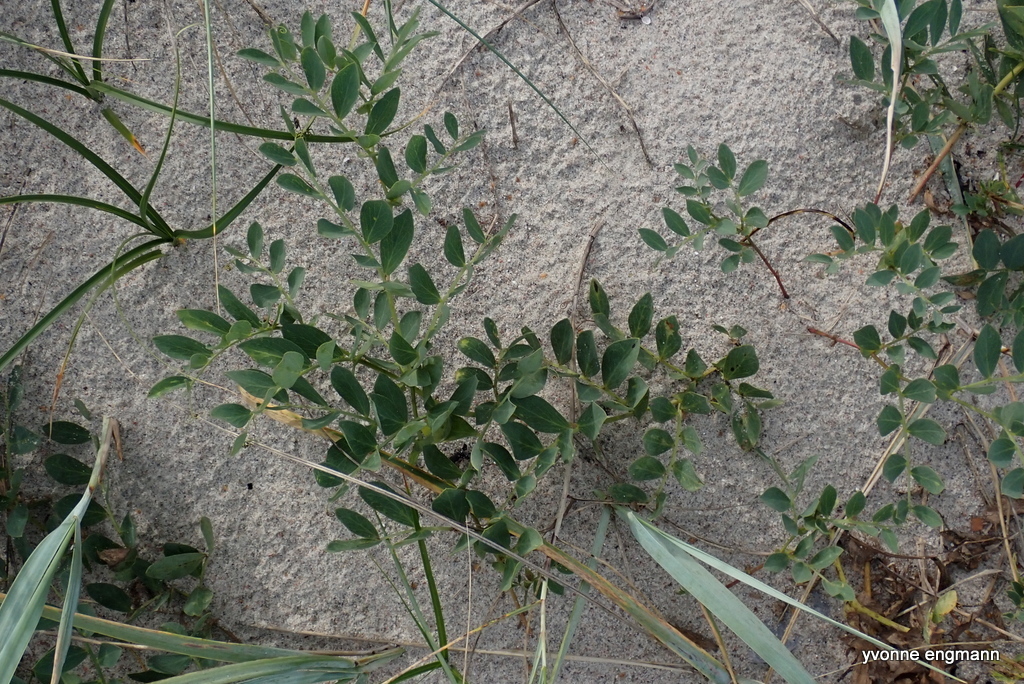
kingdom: Plantae
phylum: Tracheophyta
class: Magnoliopsida
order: Fabales
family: Fabaceae
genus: Lathyrus
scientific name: Lathyrus japonicus
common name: Sea pea
